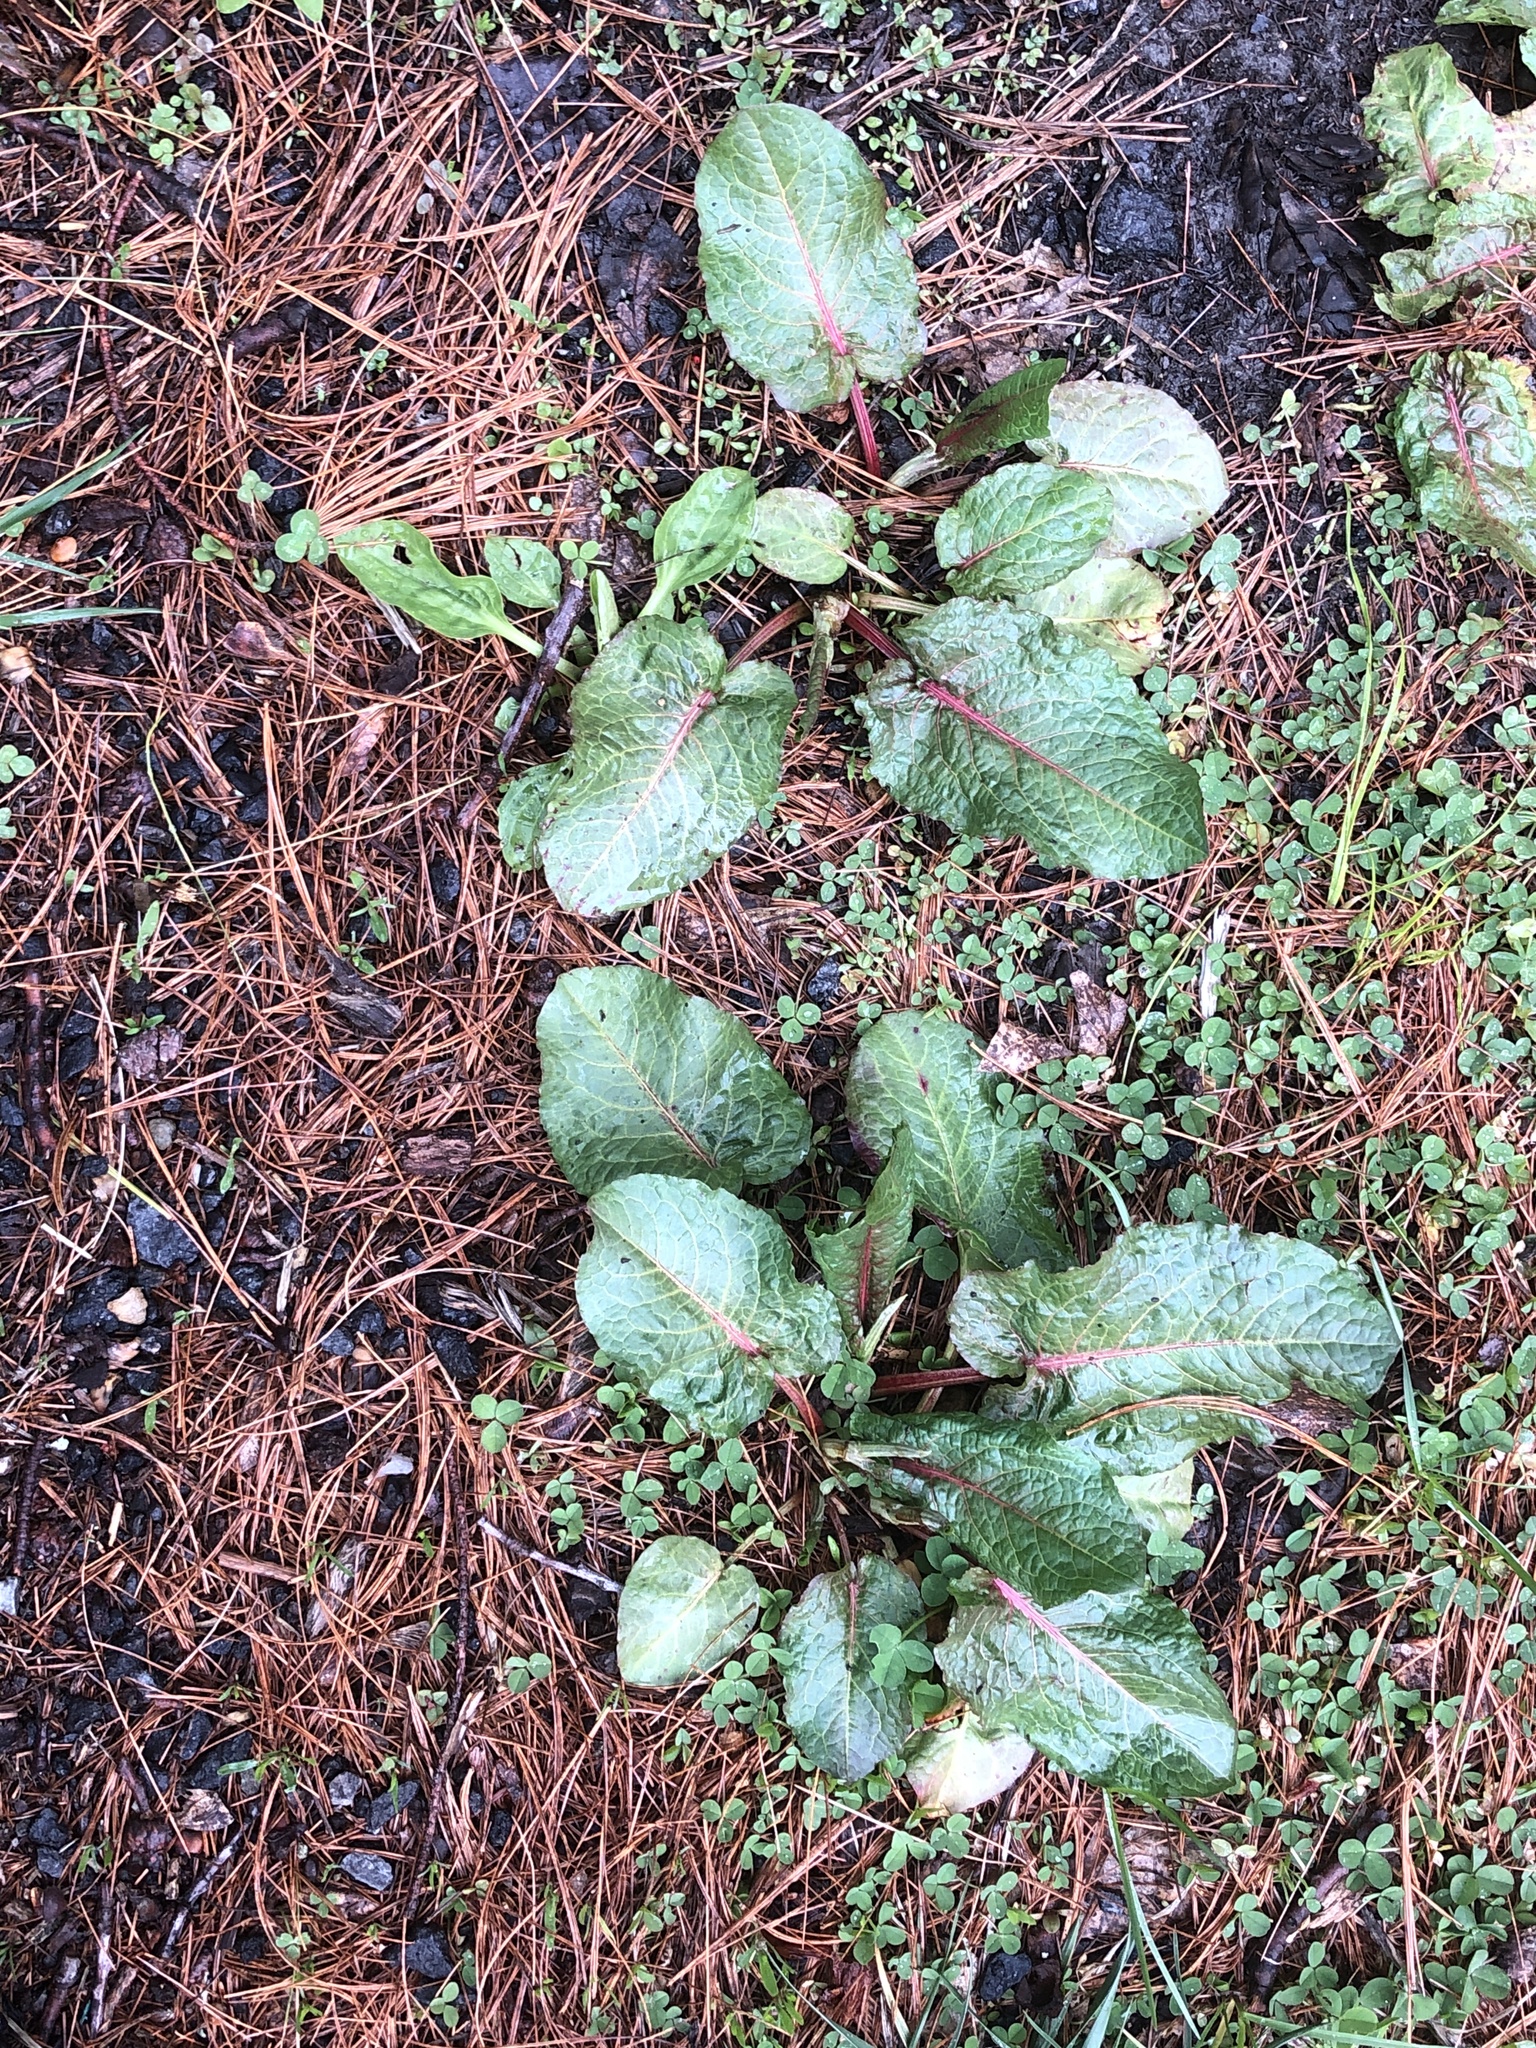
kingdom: Plantae
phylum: Tracheophyta
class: Magnoliopsida
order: Caryophyllales
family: Polygonaceae
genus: Rumex
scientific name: Rumex obtusifolius
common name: Bitter dock
